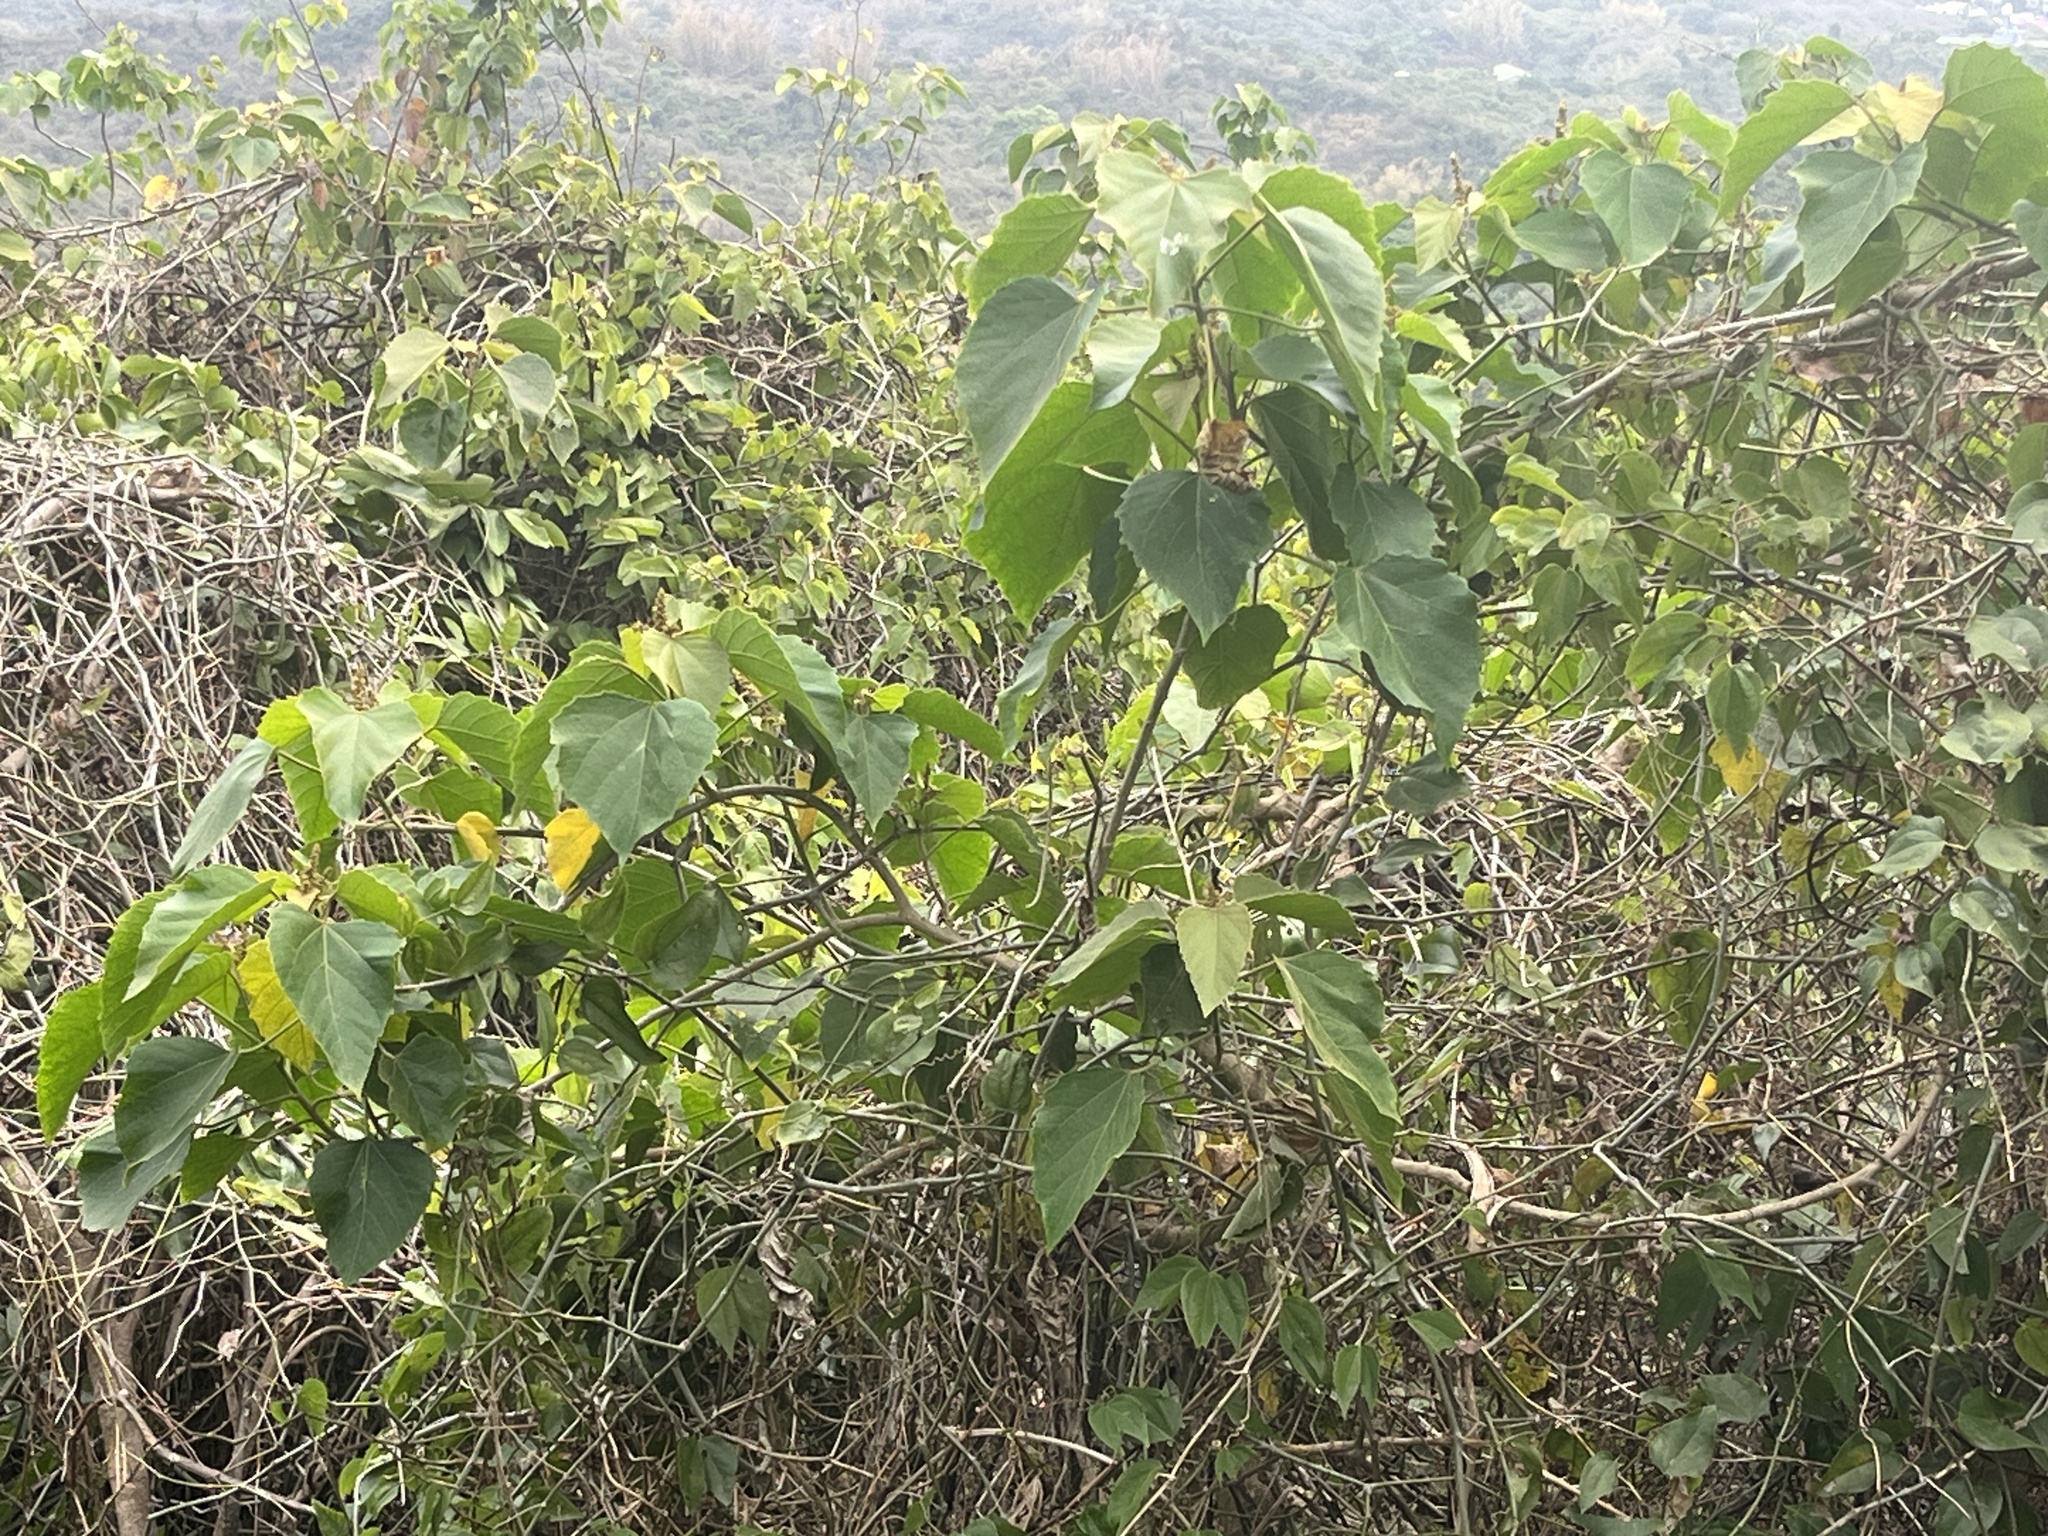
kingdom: Plantae
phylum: Tracheophyta
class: Magnoliopsida
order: Malpighiales
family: Euphorbiaceae
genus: Melanolepis
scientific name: Melanolepis multiglandulosa
